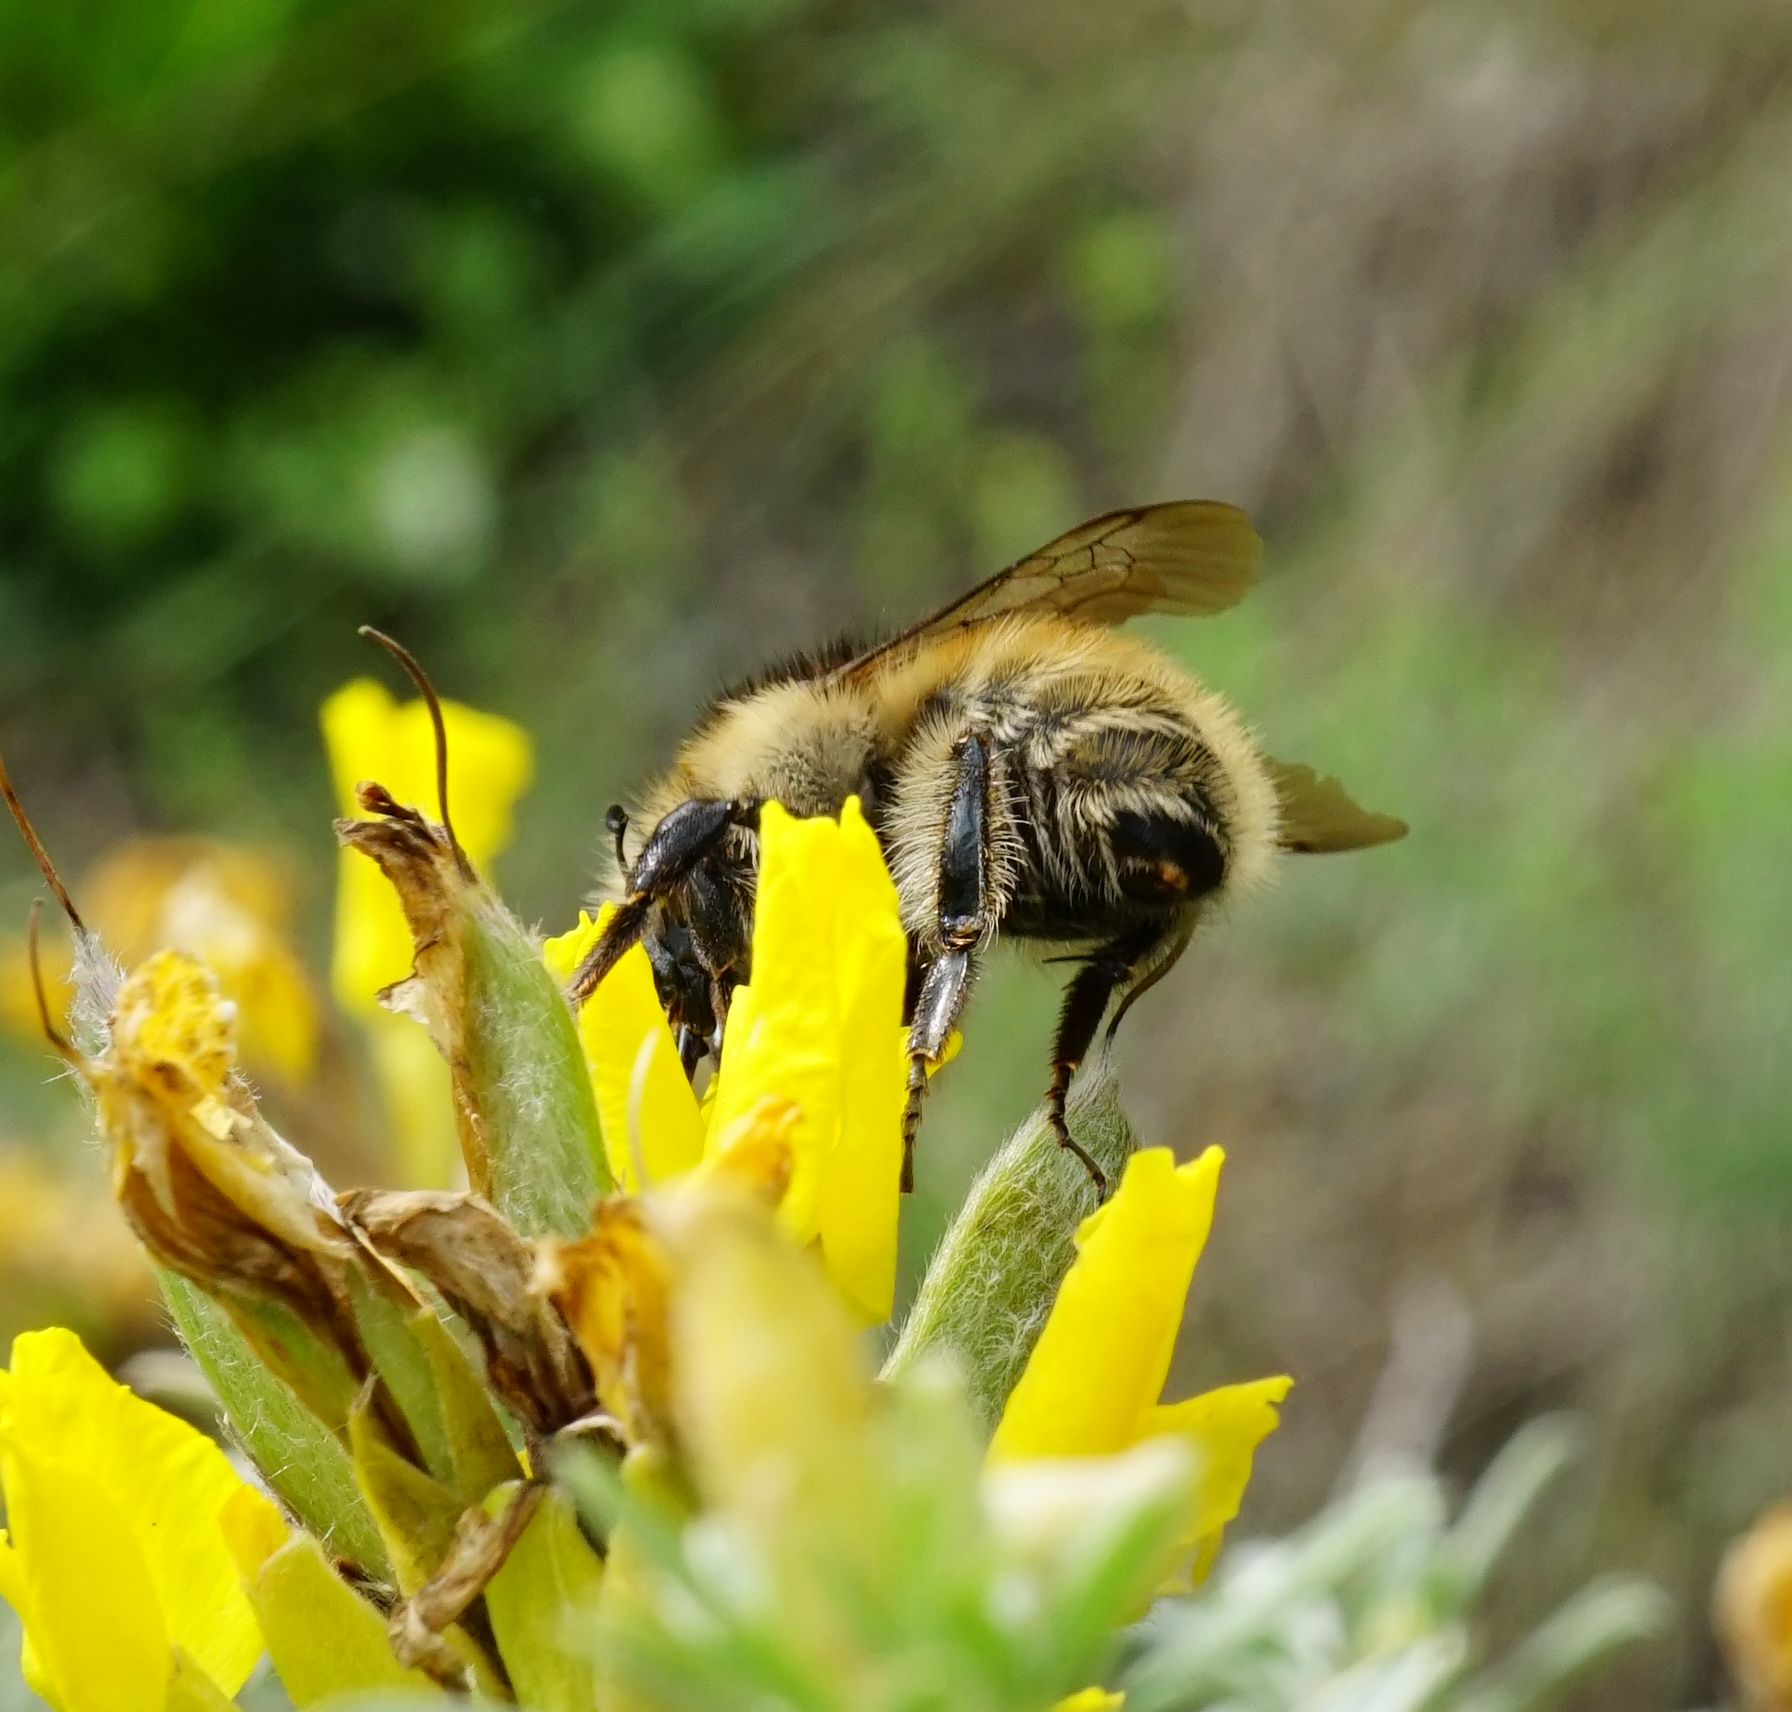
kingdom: Animalia
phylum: Arthropoda
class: Insecta
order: Hymenoptera
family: Apidae
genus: Bombus
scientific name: Bombus humilis
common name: Brown-banded carder-bee
